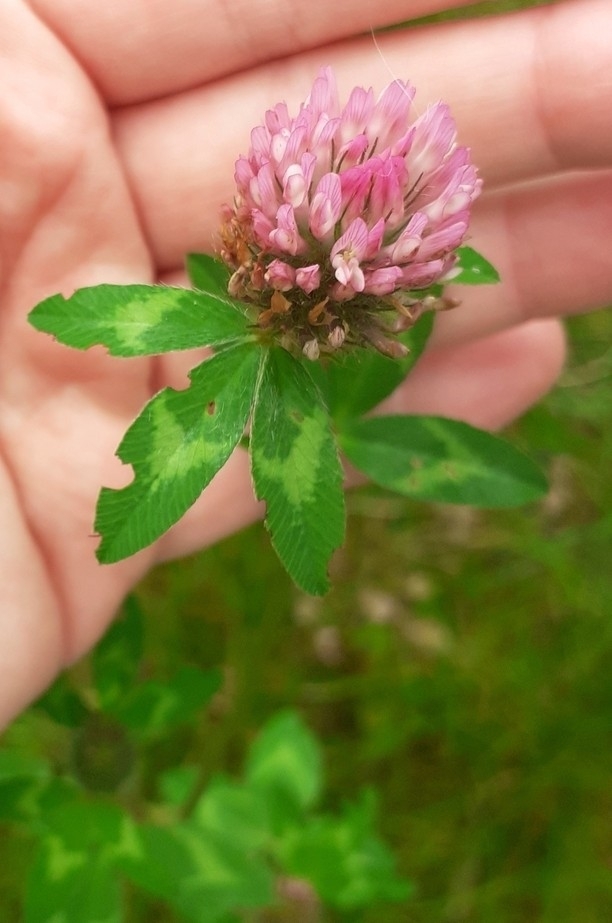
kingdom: Plantae
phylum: Tracheophyta
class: Magnoliopsida
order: Fabales
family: Fabaceae
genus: Trifolium
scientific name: Trifolium pratense
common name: Red clover
